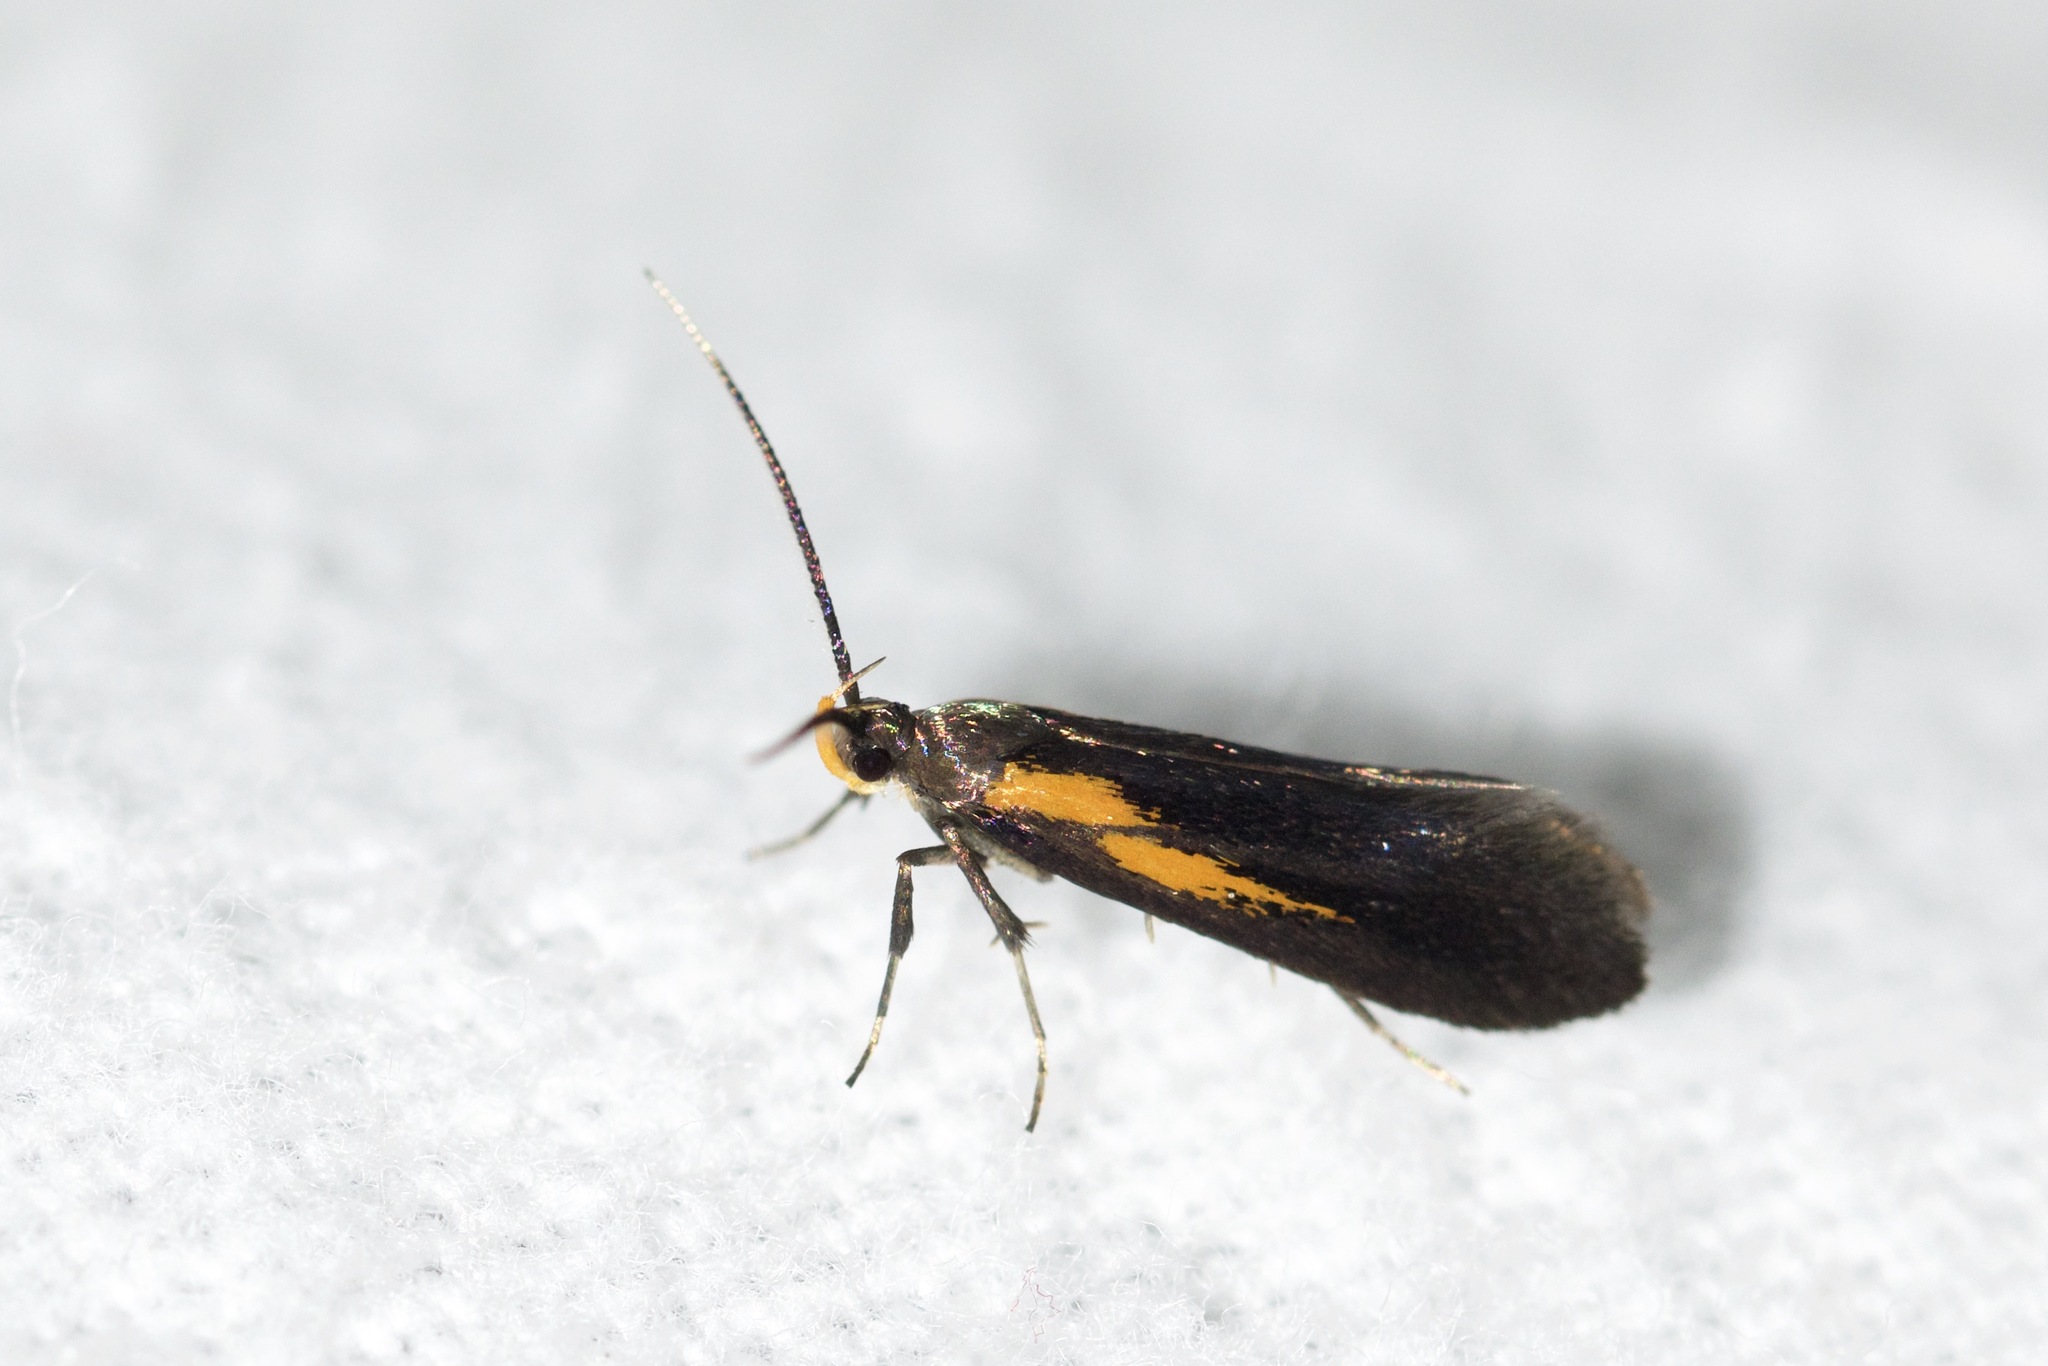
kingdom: Animalia
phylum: Arthropoda
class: Insecta
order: Lepidoptera
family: Oecophoridae
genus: Mathildana
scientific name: Mathildana newmanella
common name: Newman's mathildana moth
